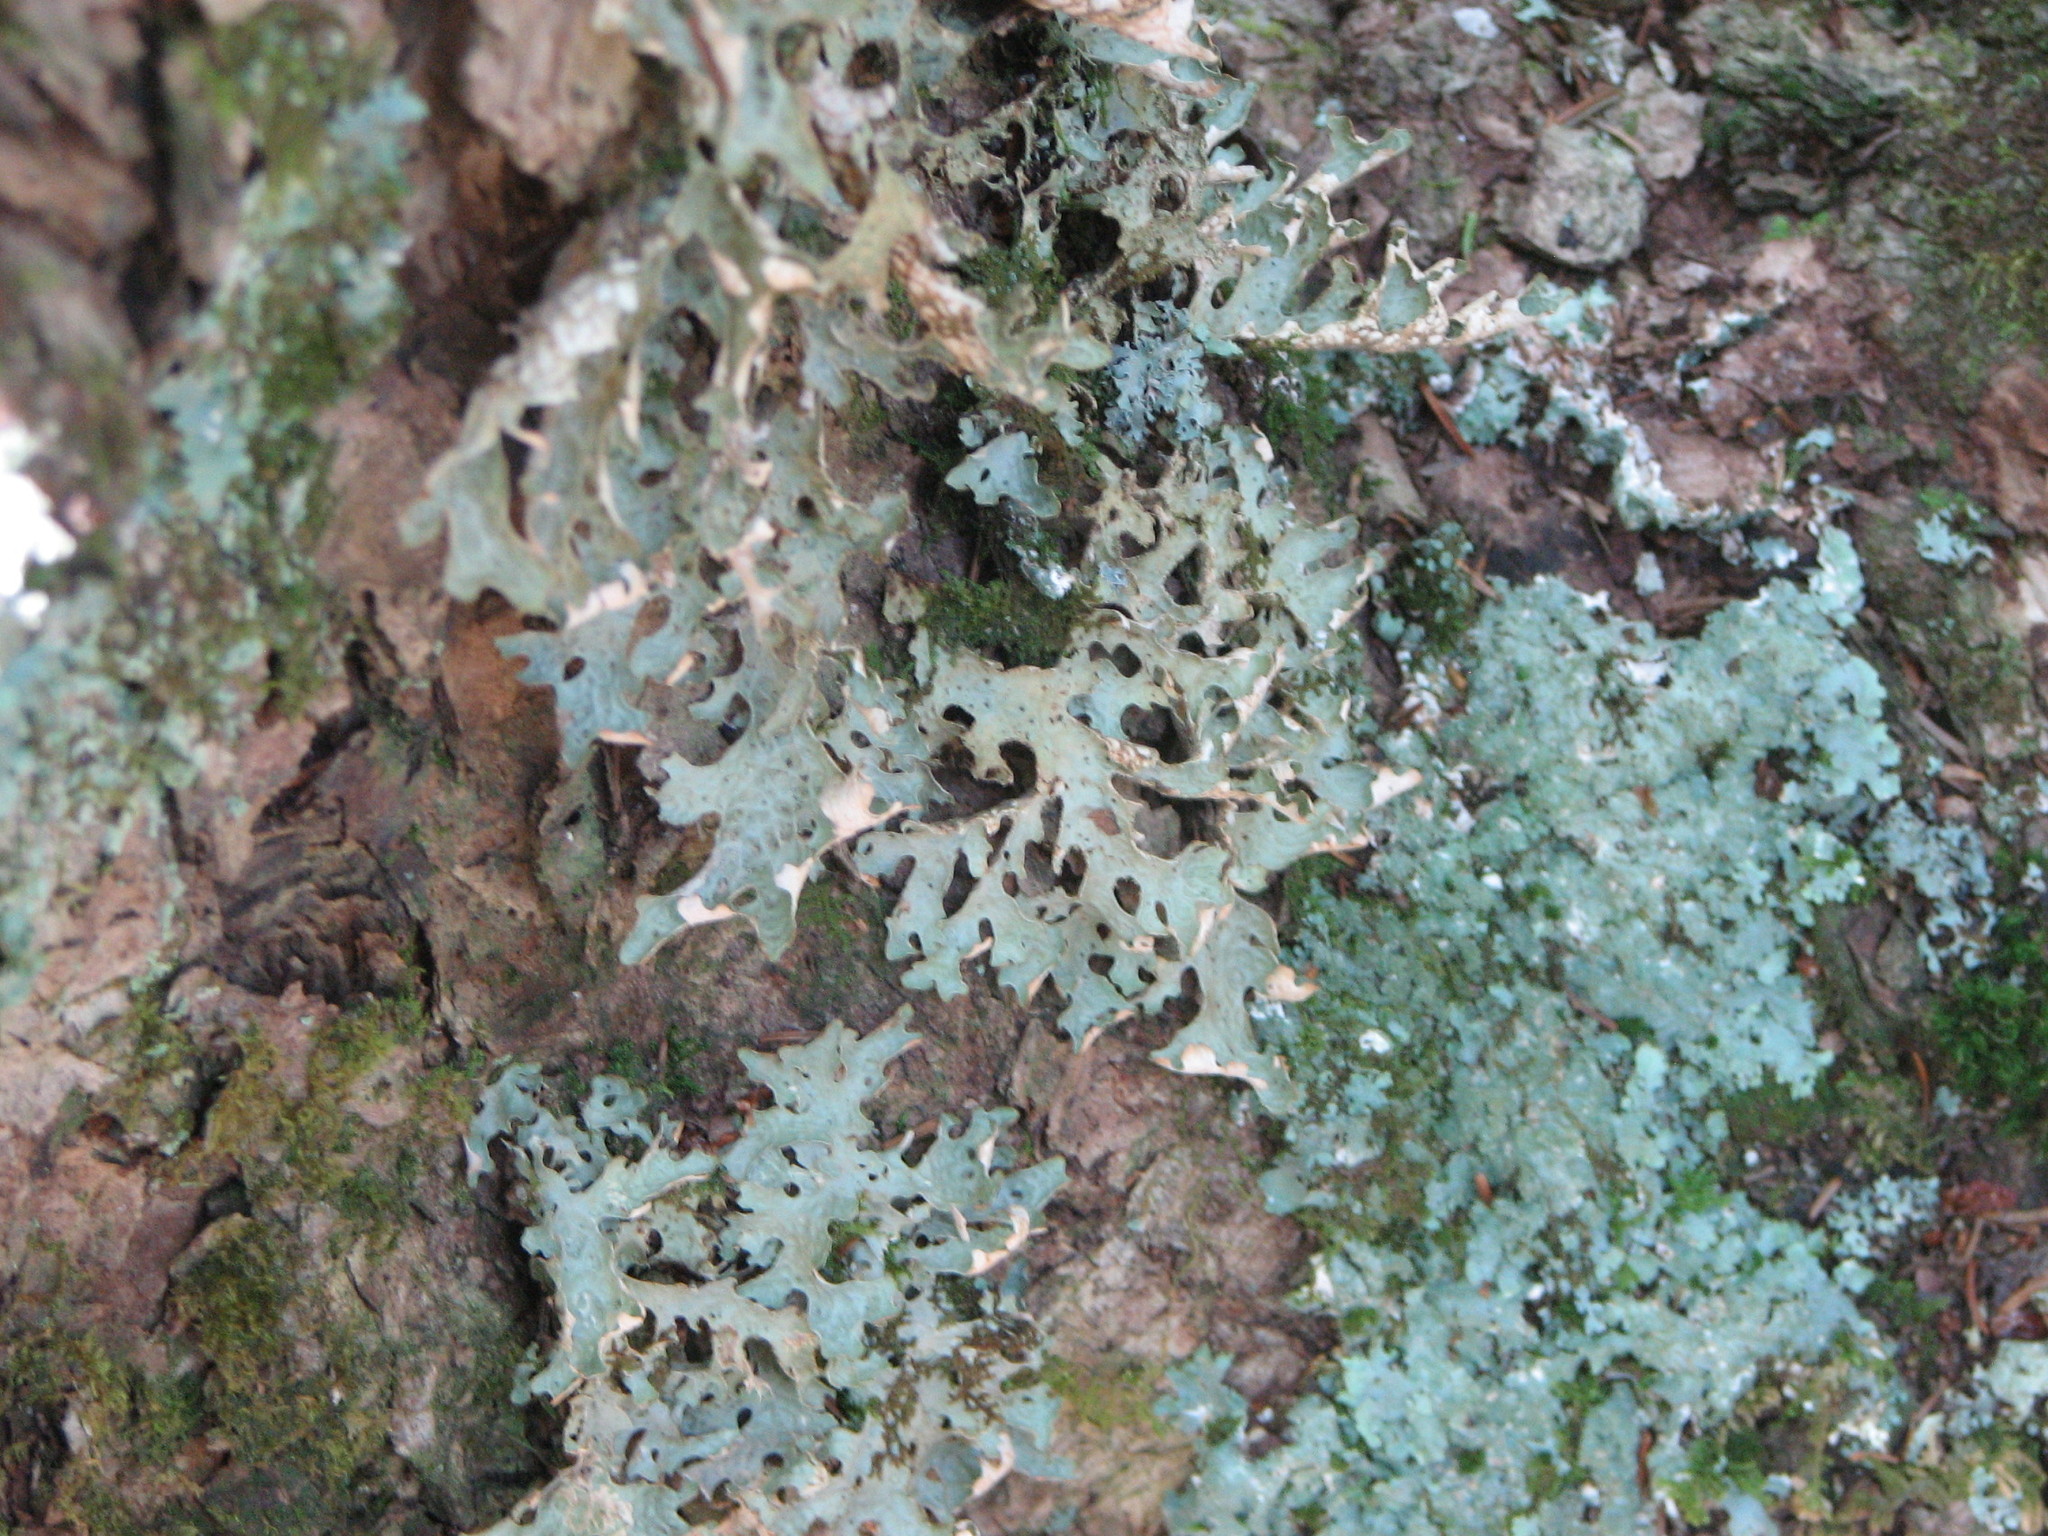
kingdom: Fungi
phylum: Ascomycota
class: Lecanoromycetes
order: Peltigerales
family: Lobariaceae
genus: Lobaria
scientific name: Lobaria pulmonaria
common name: Lungwort
